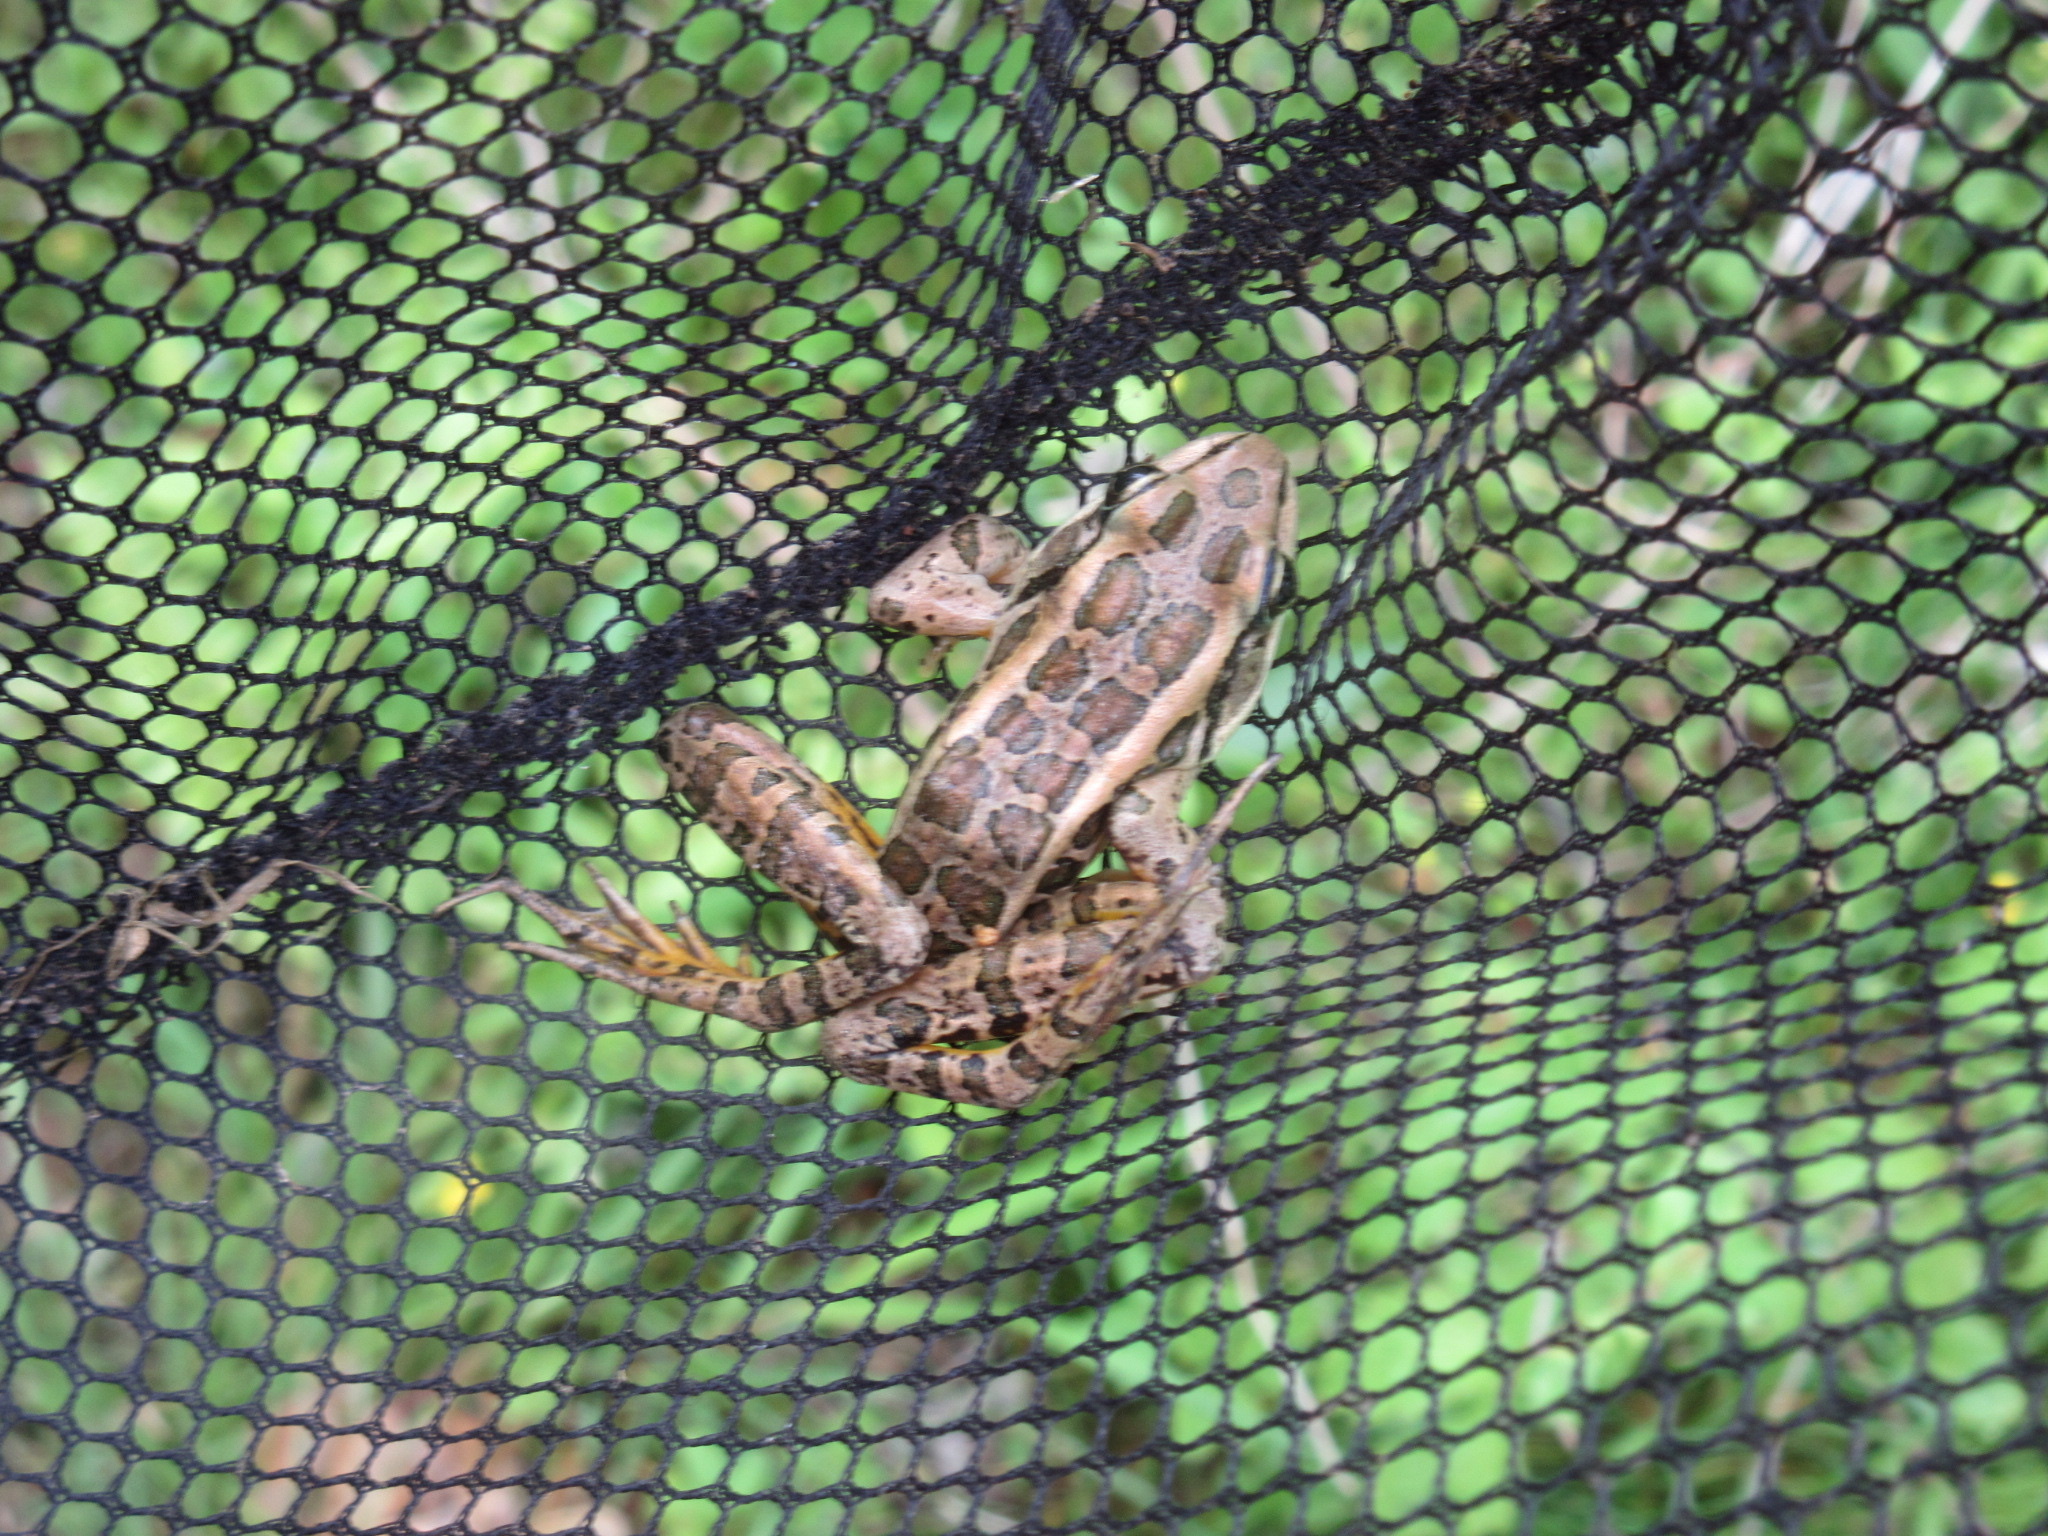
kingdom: Animalia
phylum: Chordata
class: Amphibia
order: Anura
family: Ranidae
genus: Lithobates
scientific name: Lithobates palustris
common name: Pickerel frog
